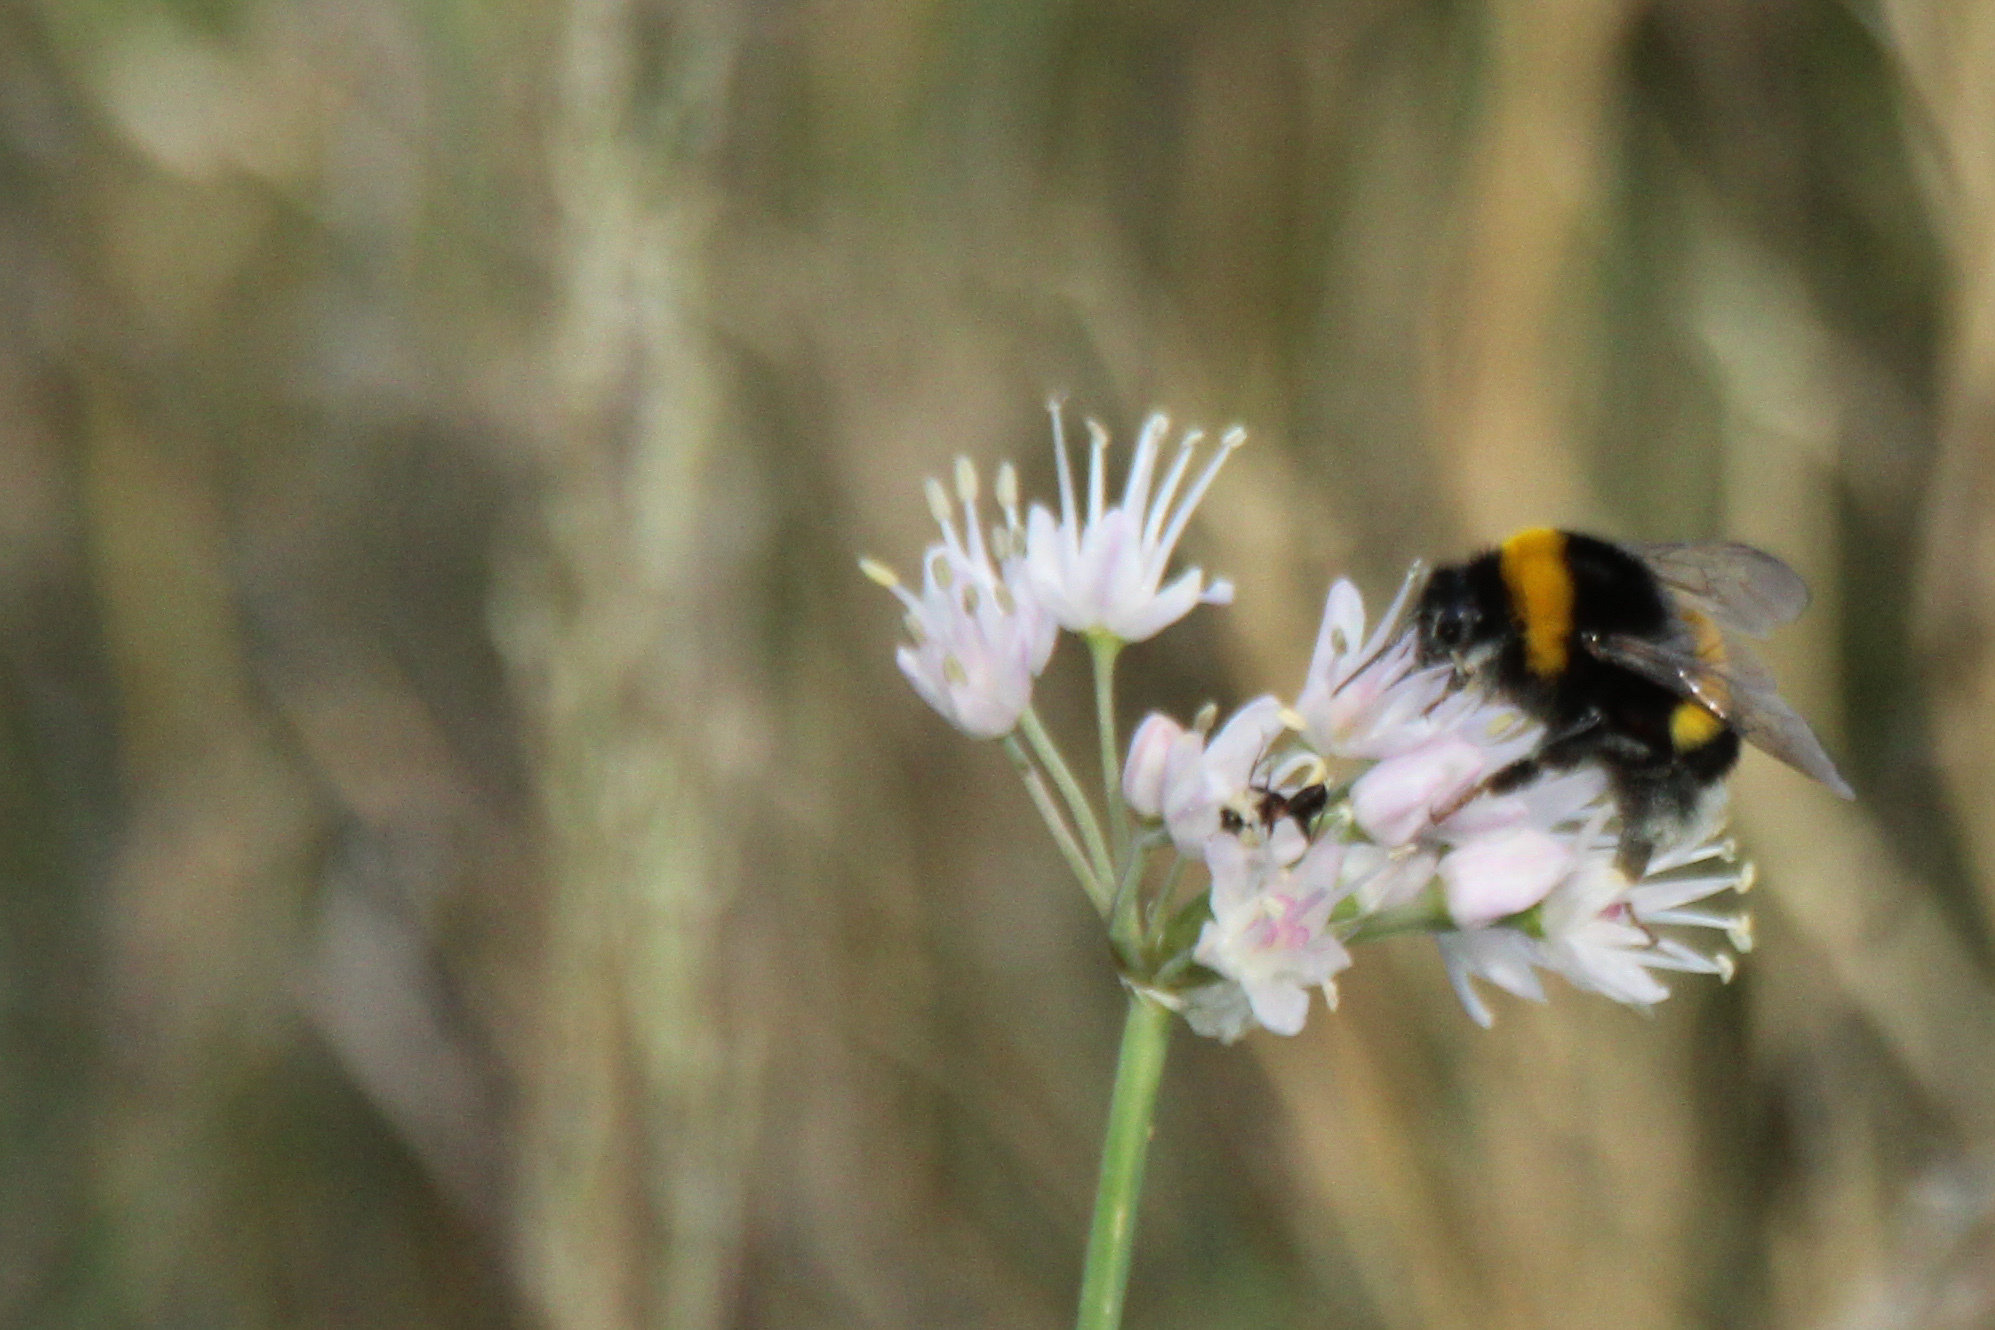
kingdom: Animalia
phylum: Arthropoda
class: Insecta
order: Hymenoptera
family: Apidae
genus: Bombus
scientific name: Bombus
